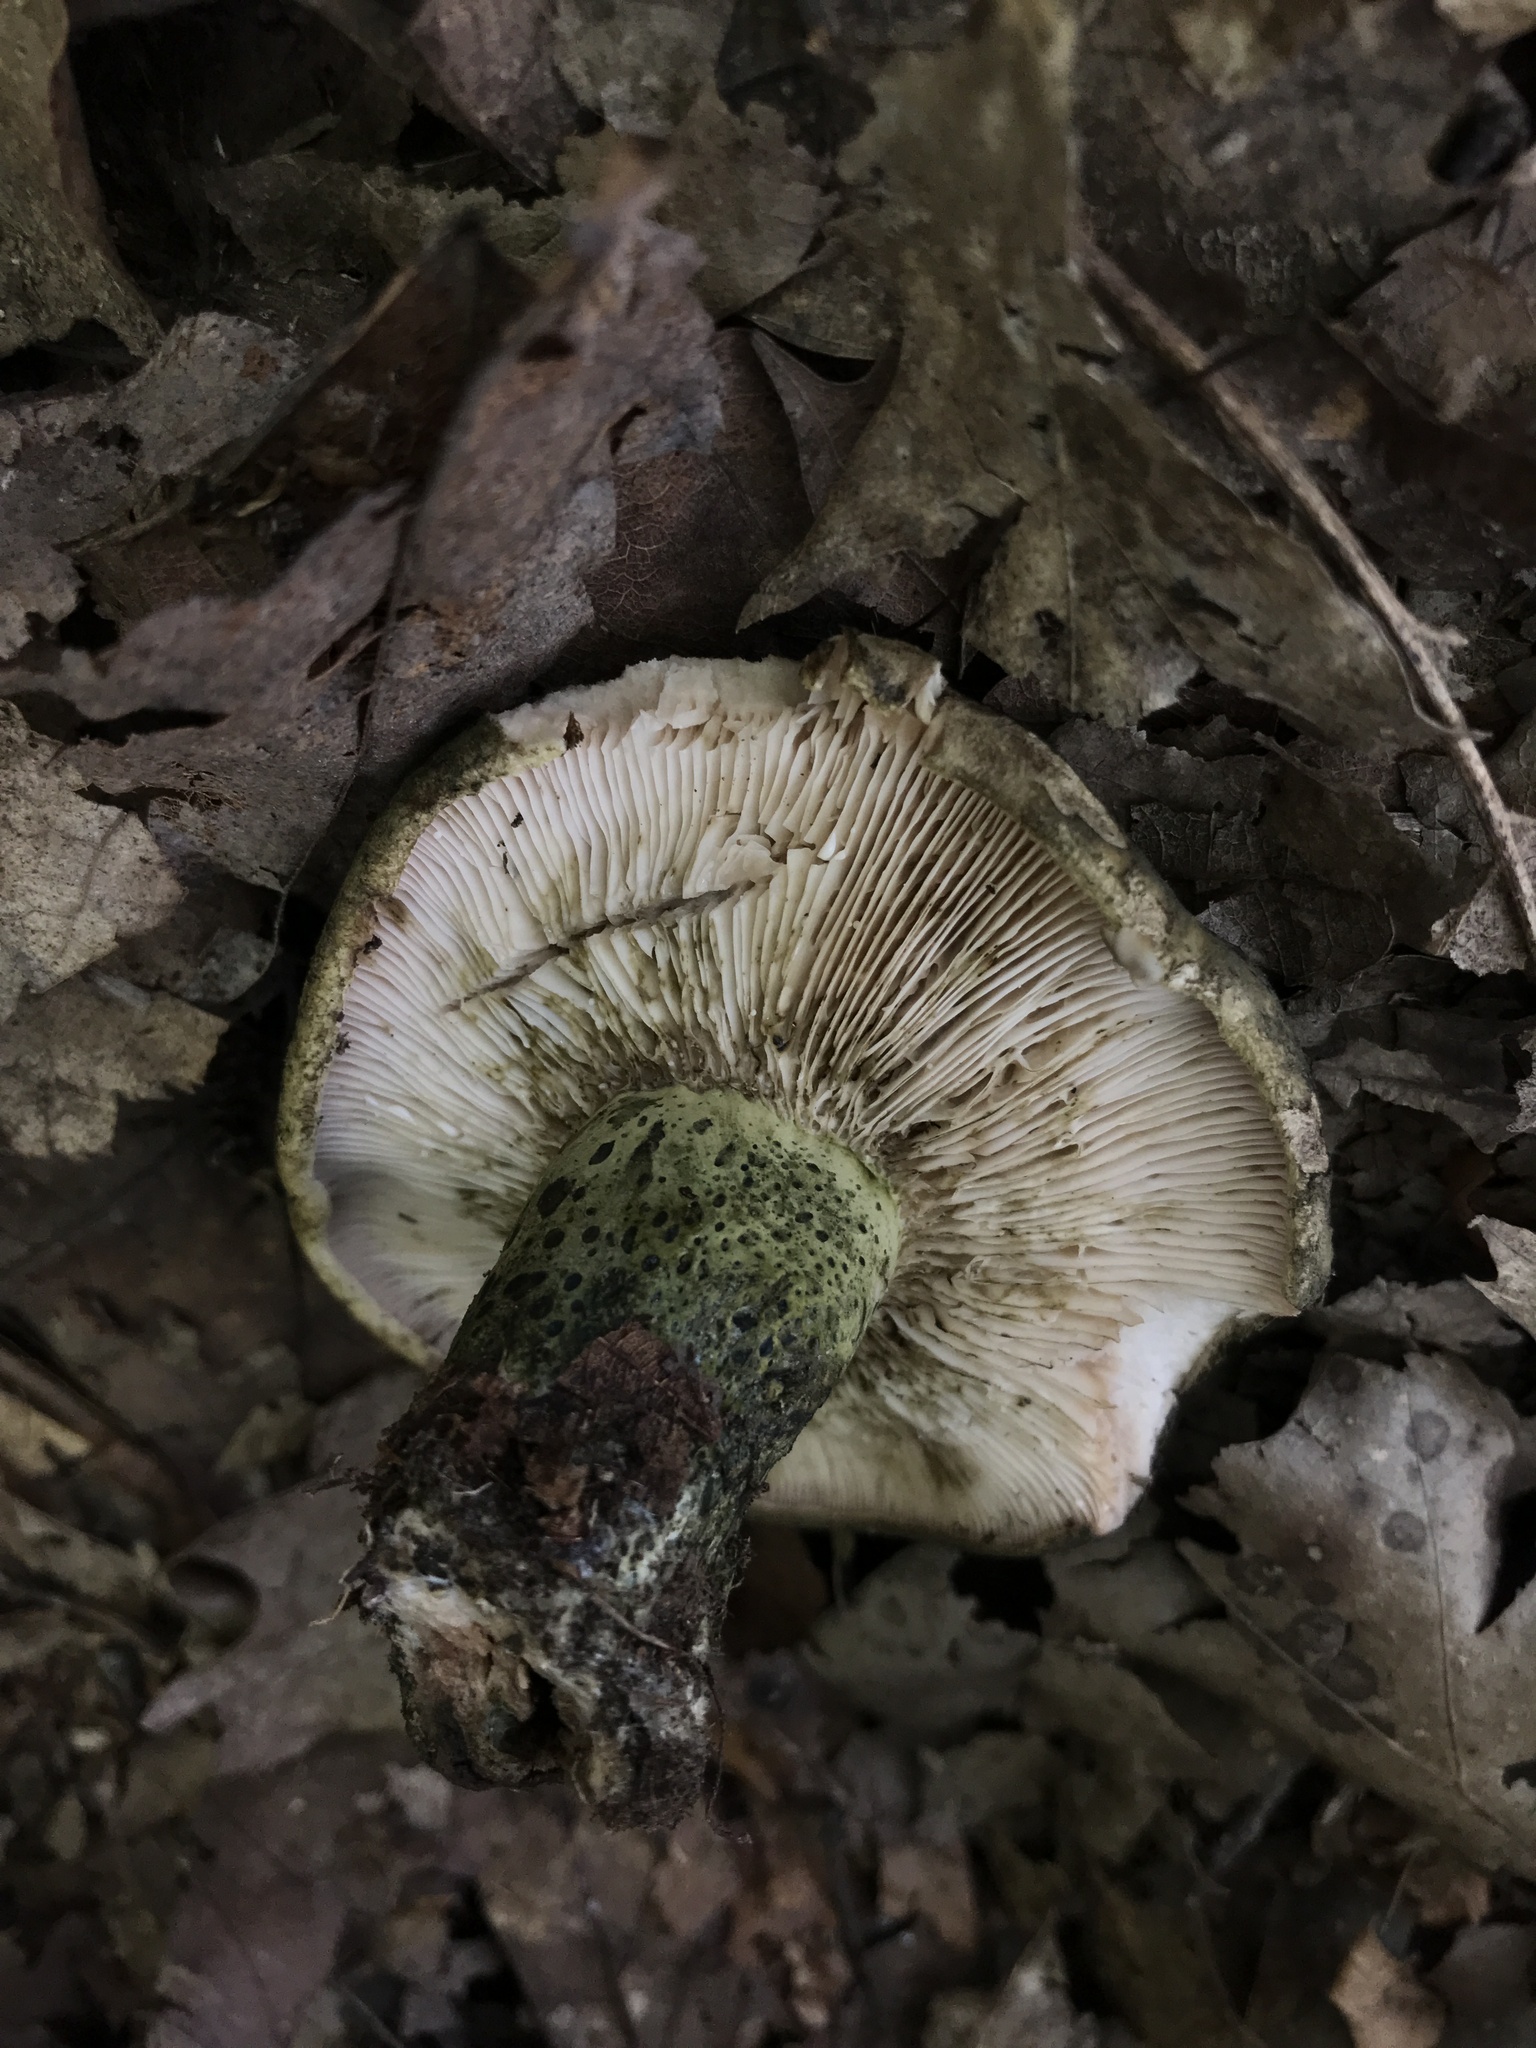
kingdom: Fungi
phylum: Basidiomycota
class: Agaricomycetes
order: Russulales
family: Russulaceae
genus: Lactarius
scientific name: Lactarius atroviridis
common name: Dark-spotted milkcap
